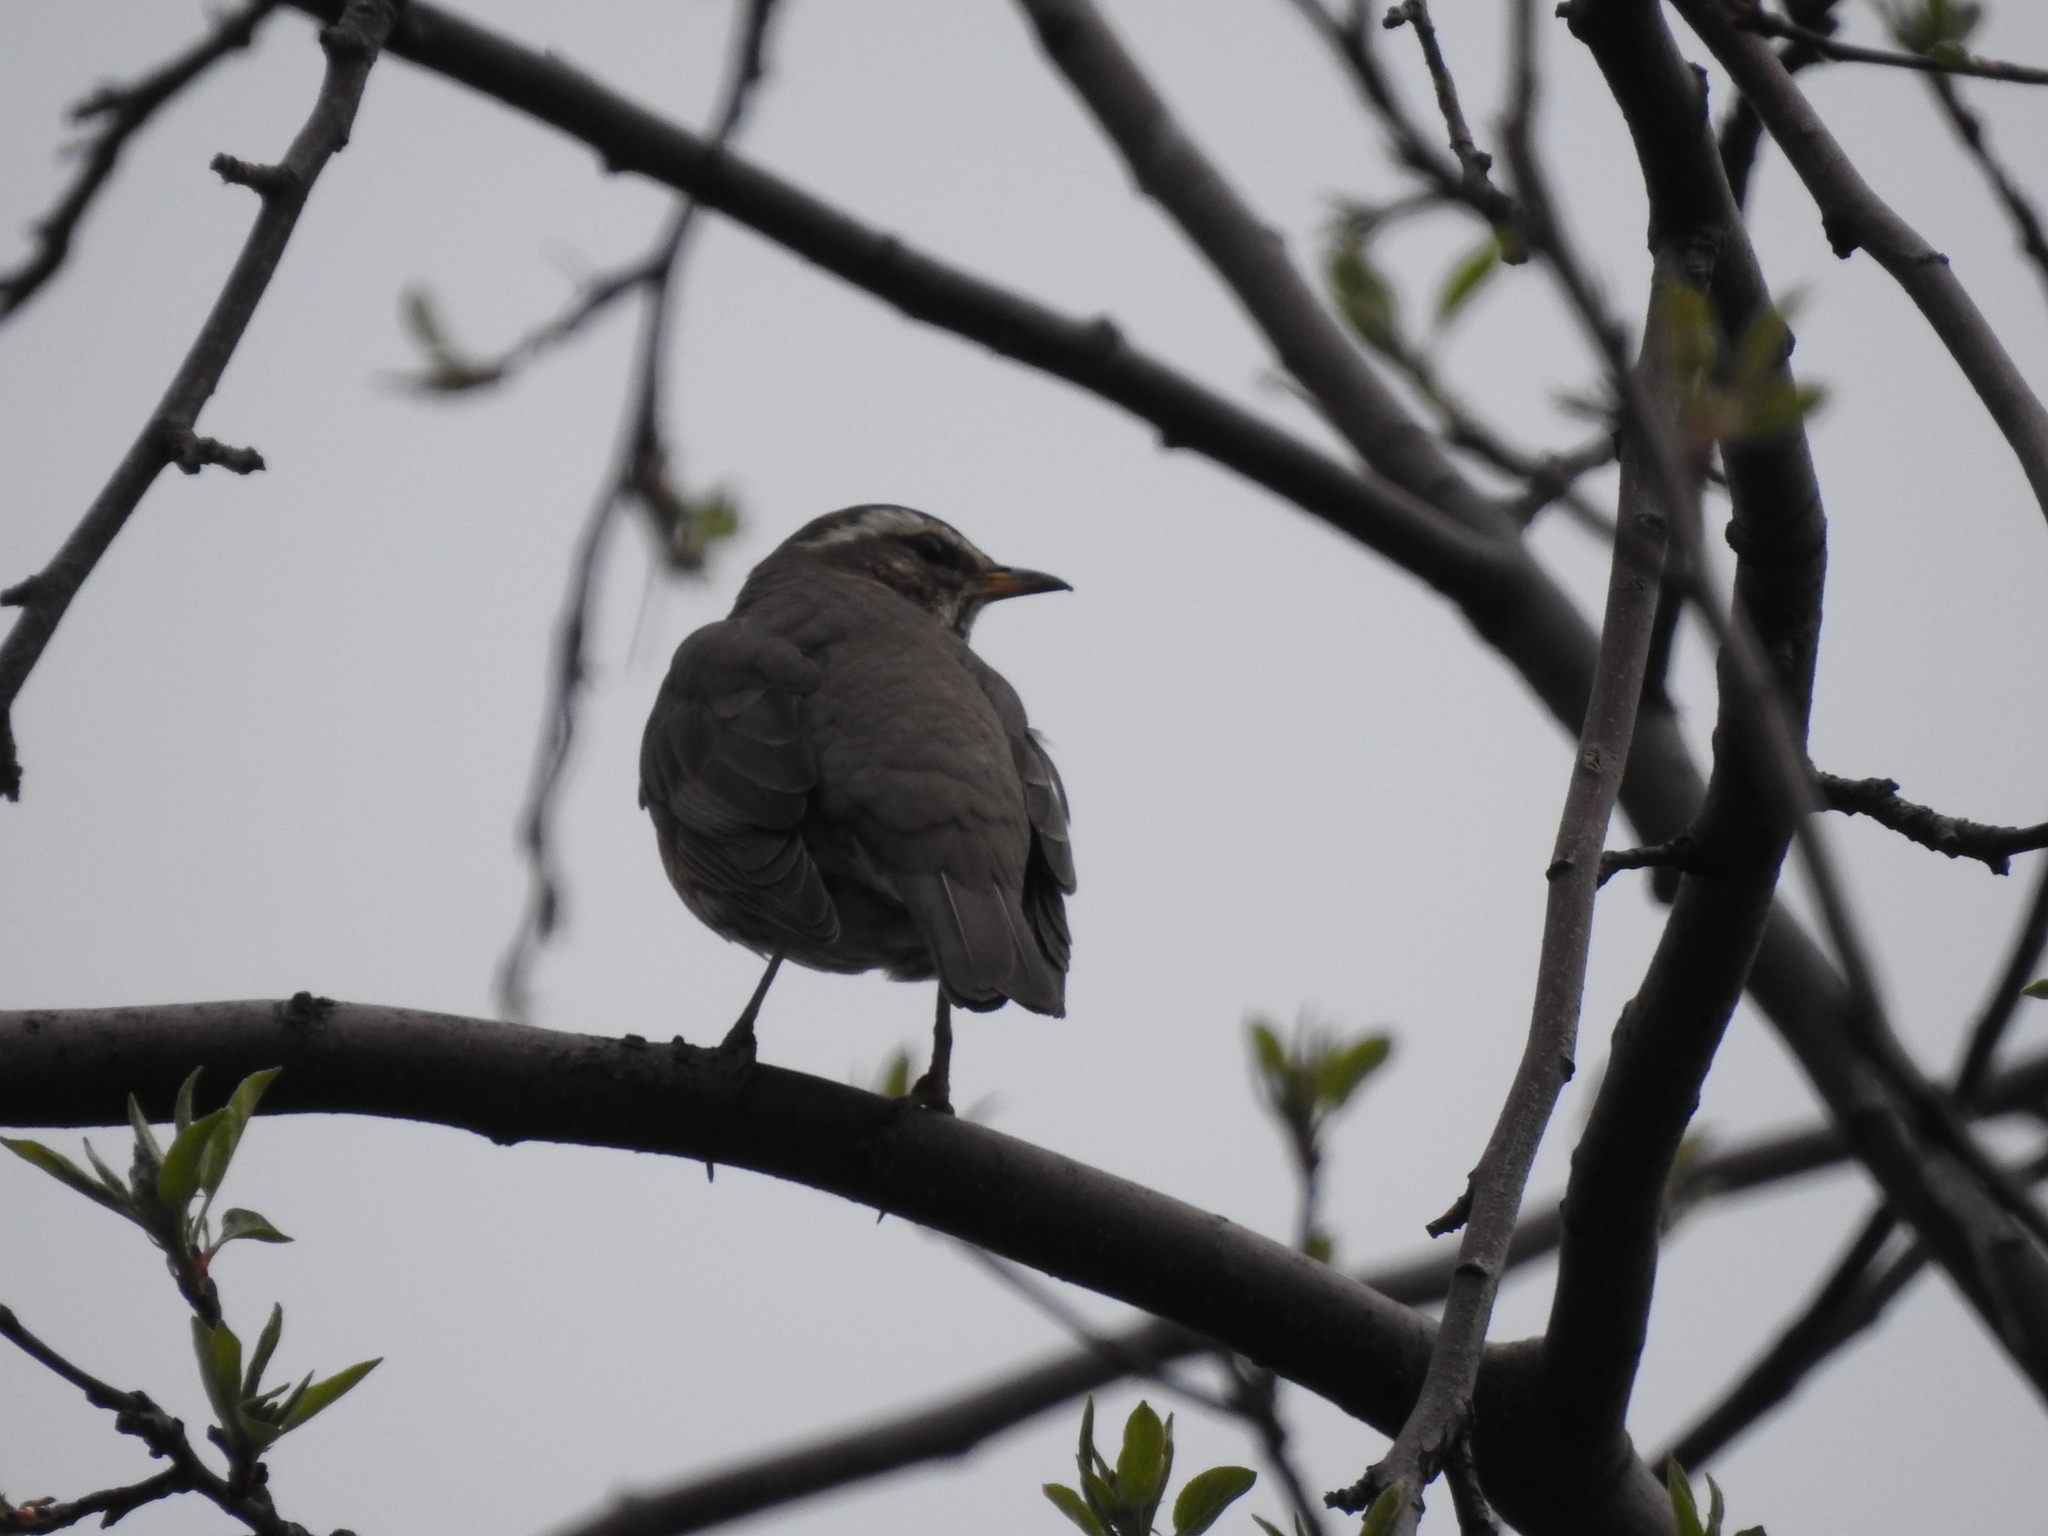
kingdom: Animalia
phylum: Chordata
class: Aves
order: Passeriformes
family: Turdidae
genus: Turdus
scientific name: Turdus iliacus
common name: Redwing
